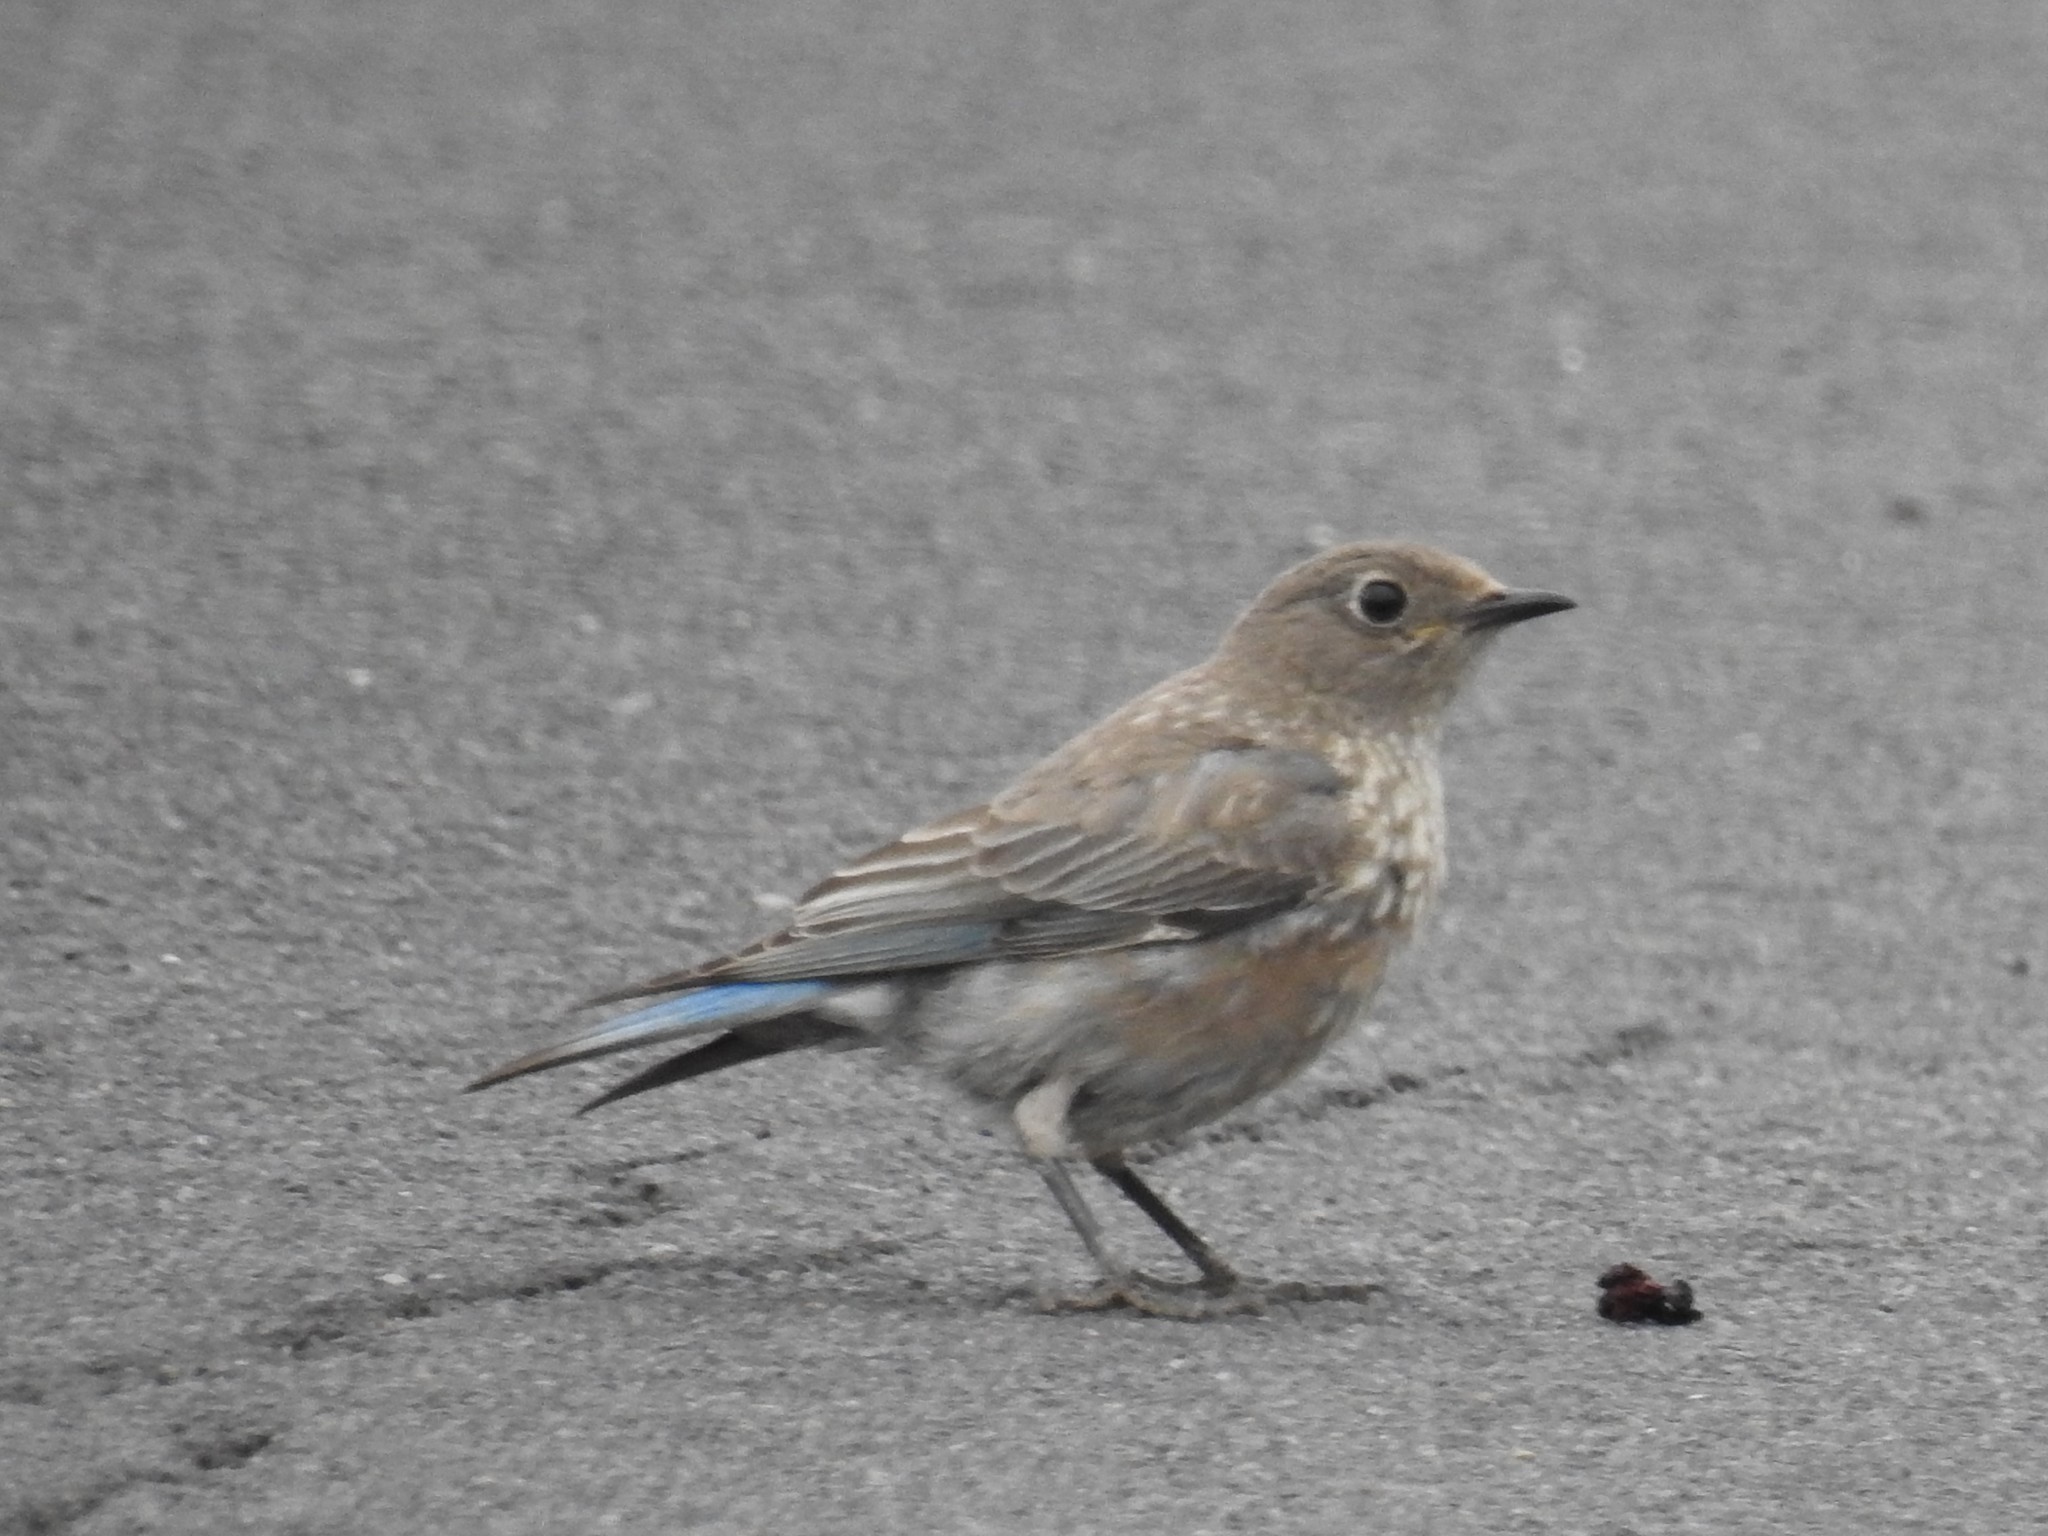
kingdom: Animalia
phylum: Chordata
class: Aves
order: Passeriformes
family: Turdidae
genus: Sialia
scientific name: Sialia mexicana
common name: Western bluebird
